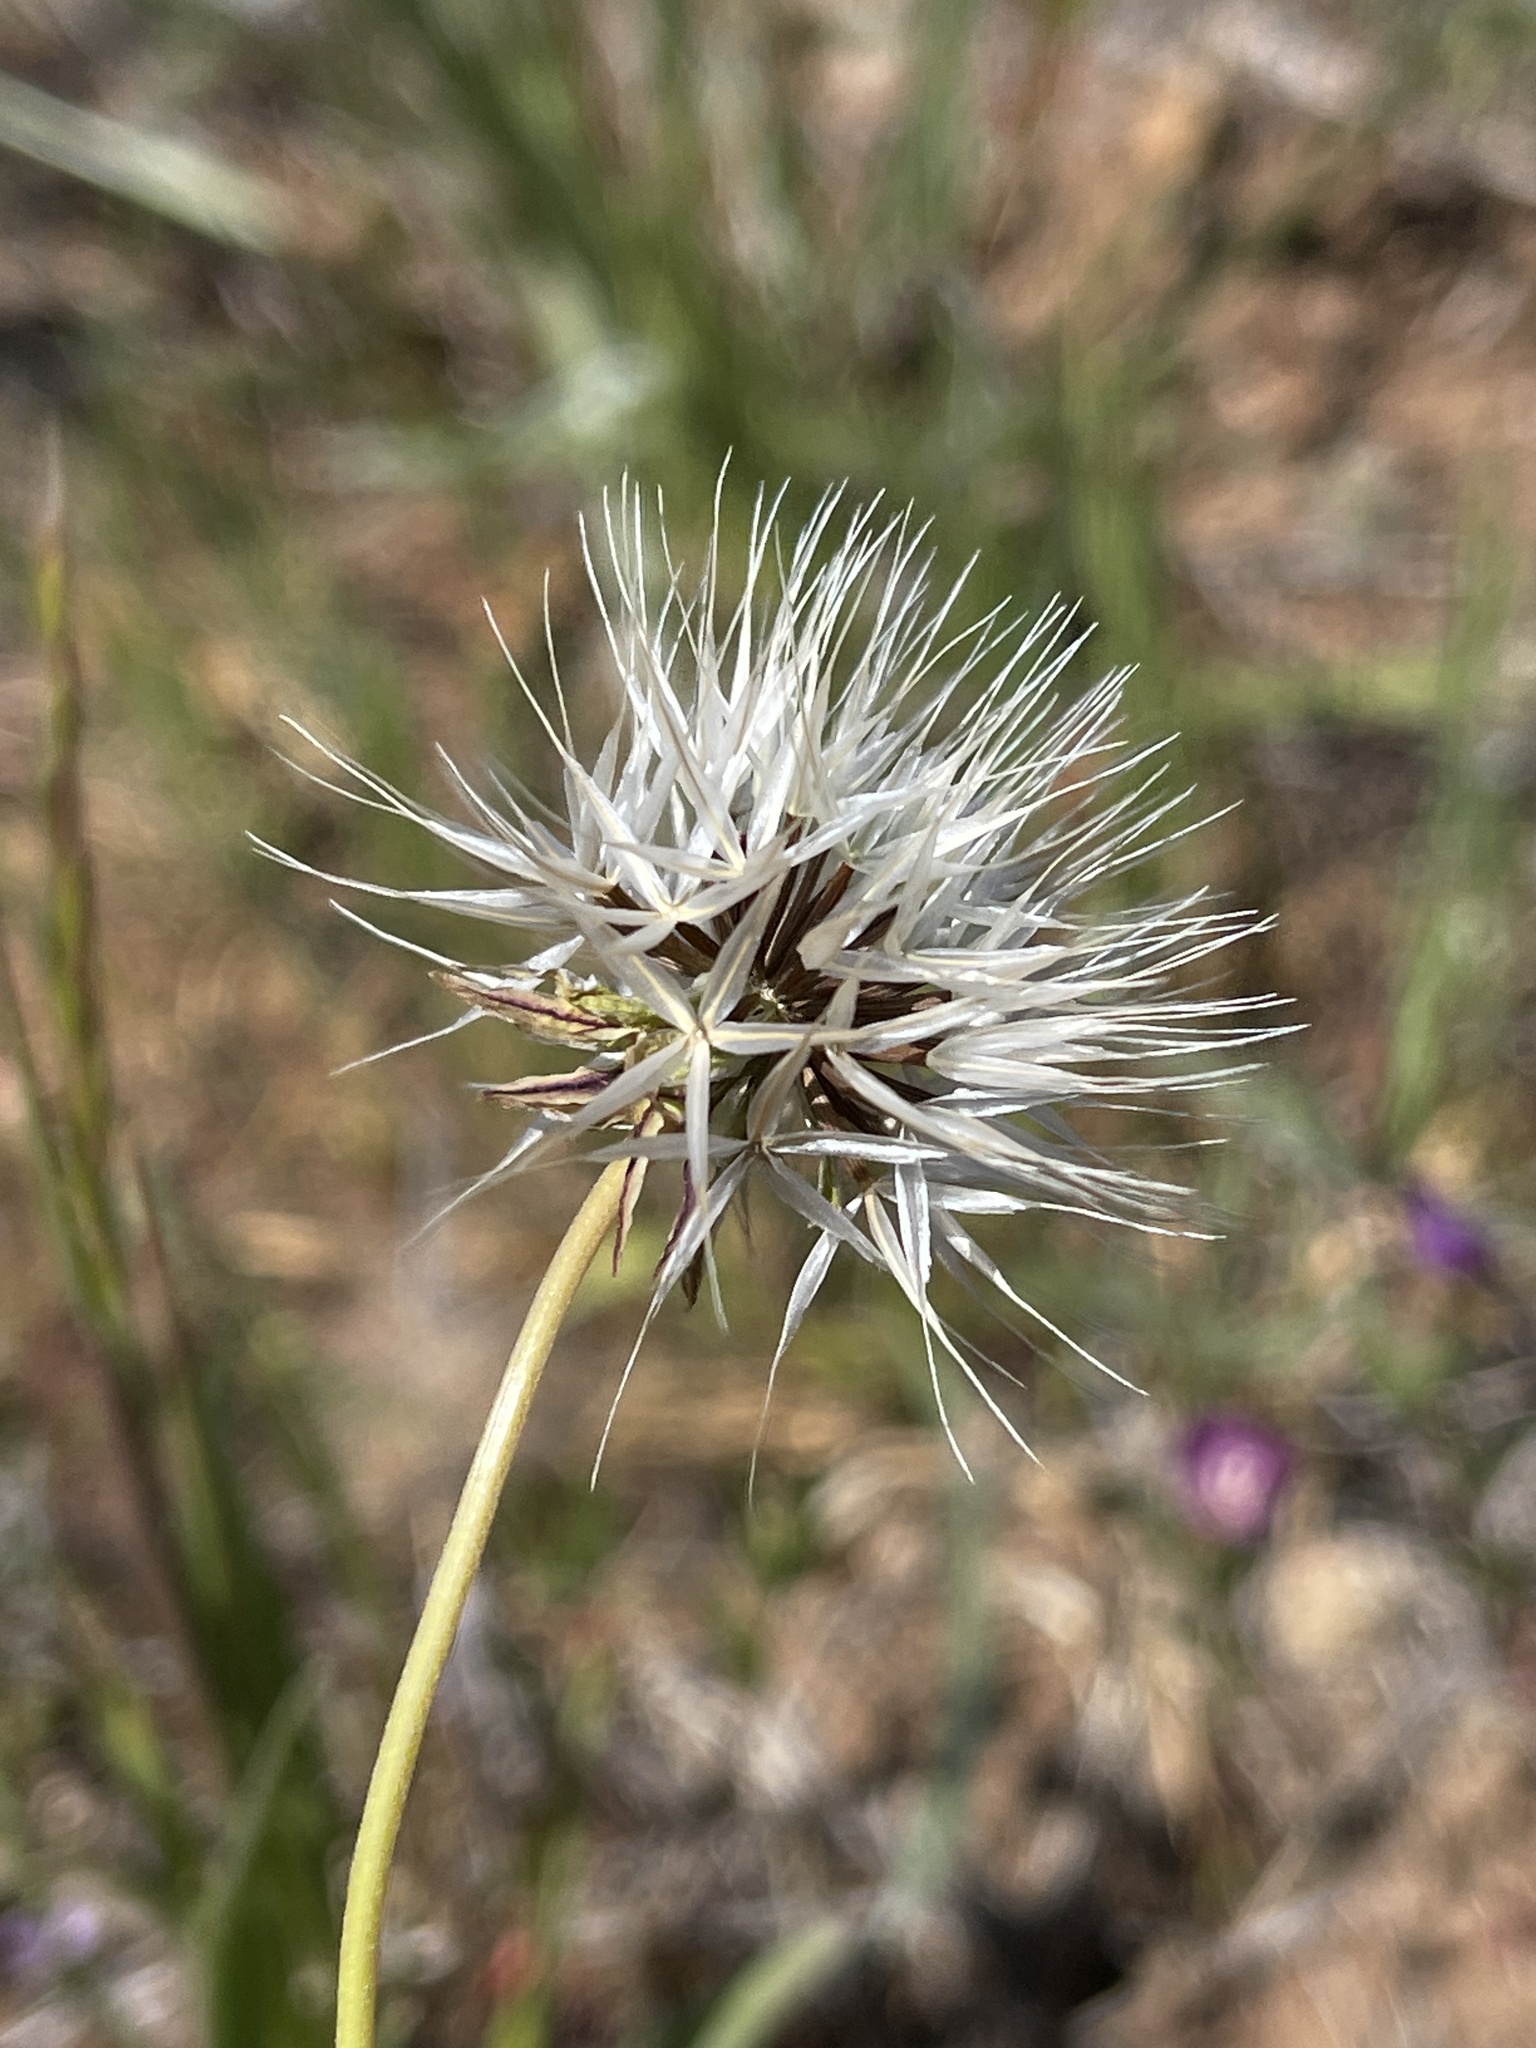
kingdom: Plantae
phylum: Tracheophyta
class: Magnoliopsida
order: Asterales
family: Asteraceae
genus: Microseris
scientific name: Microseris lindleyi
